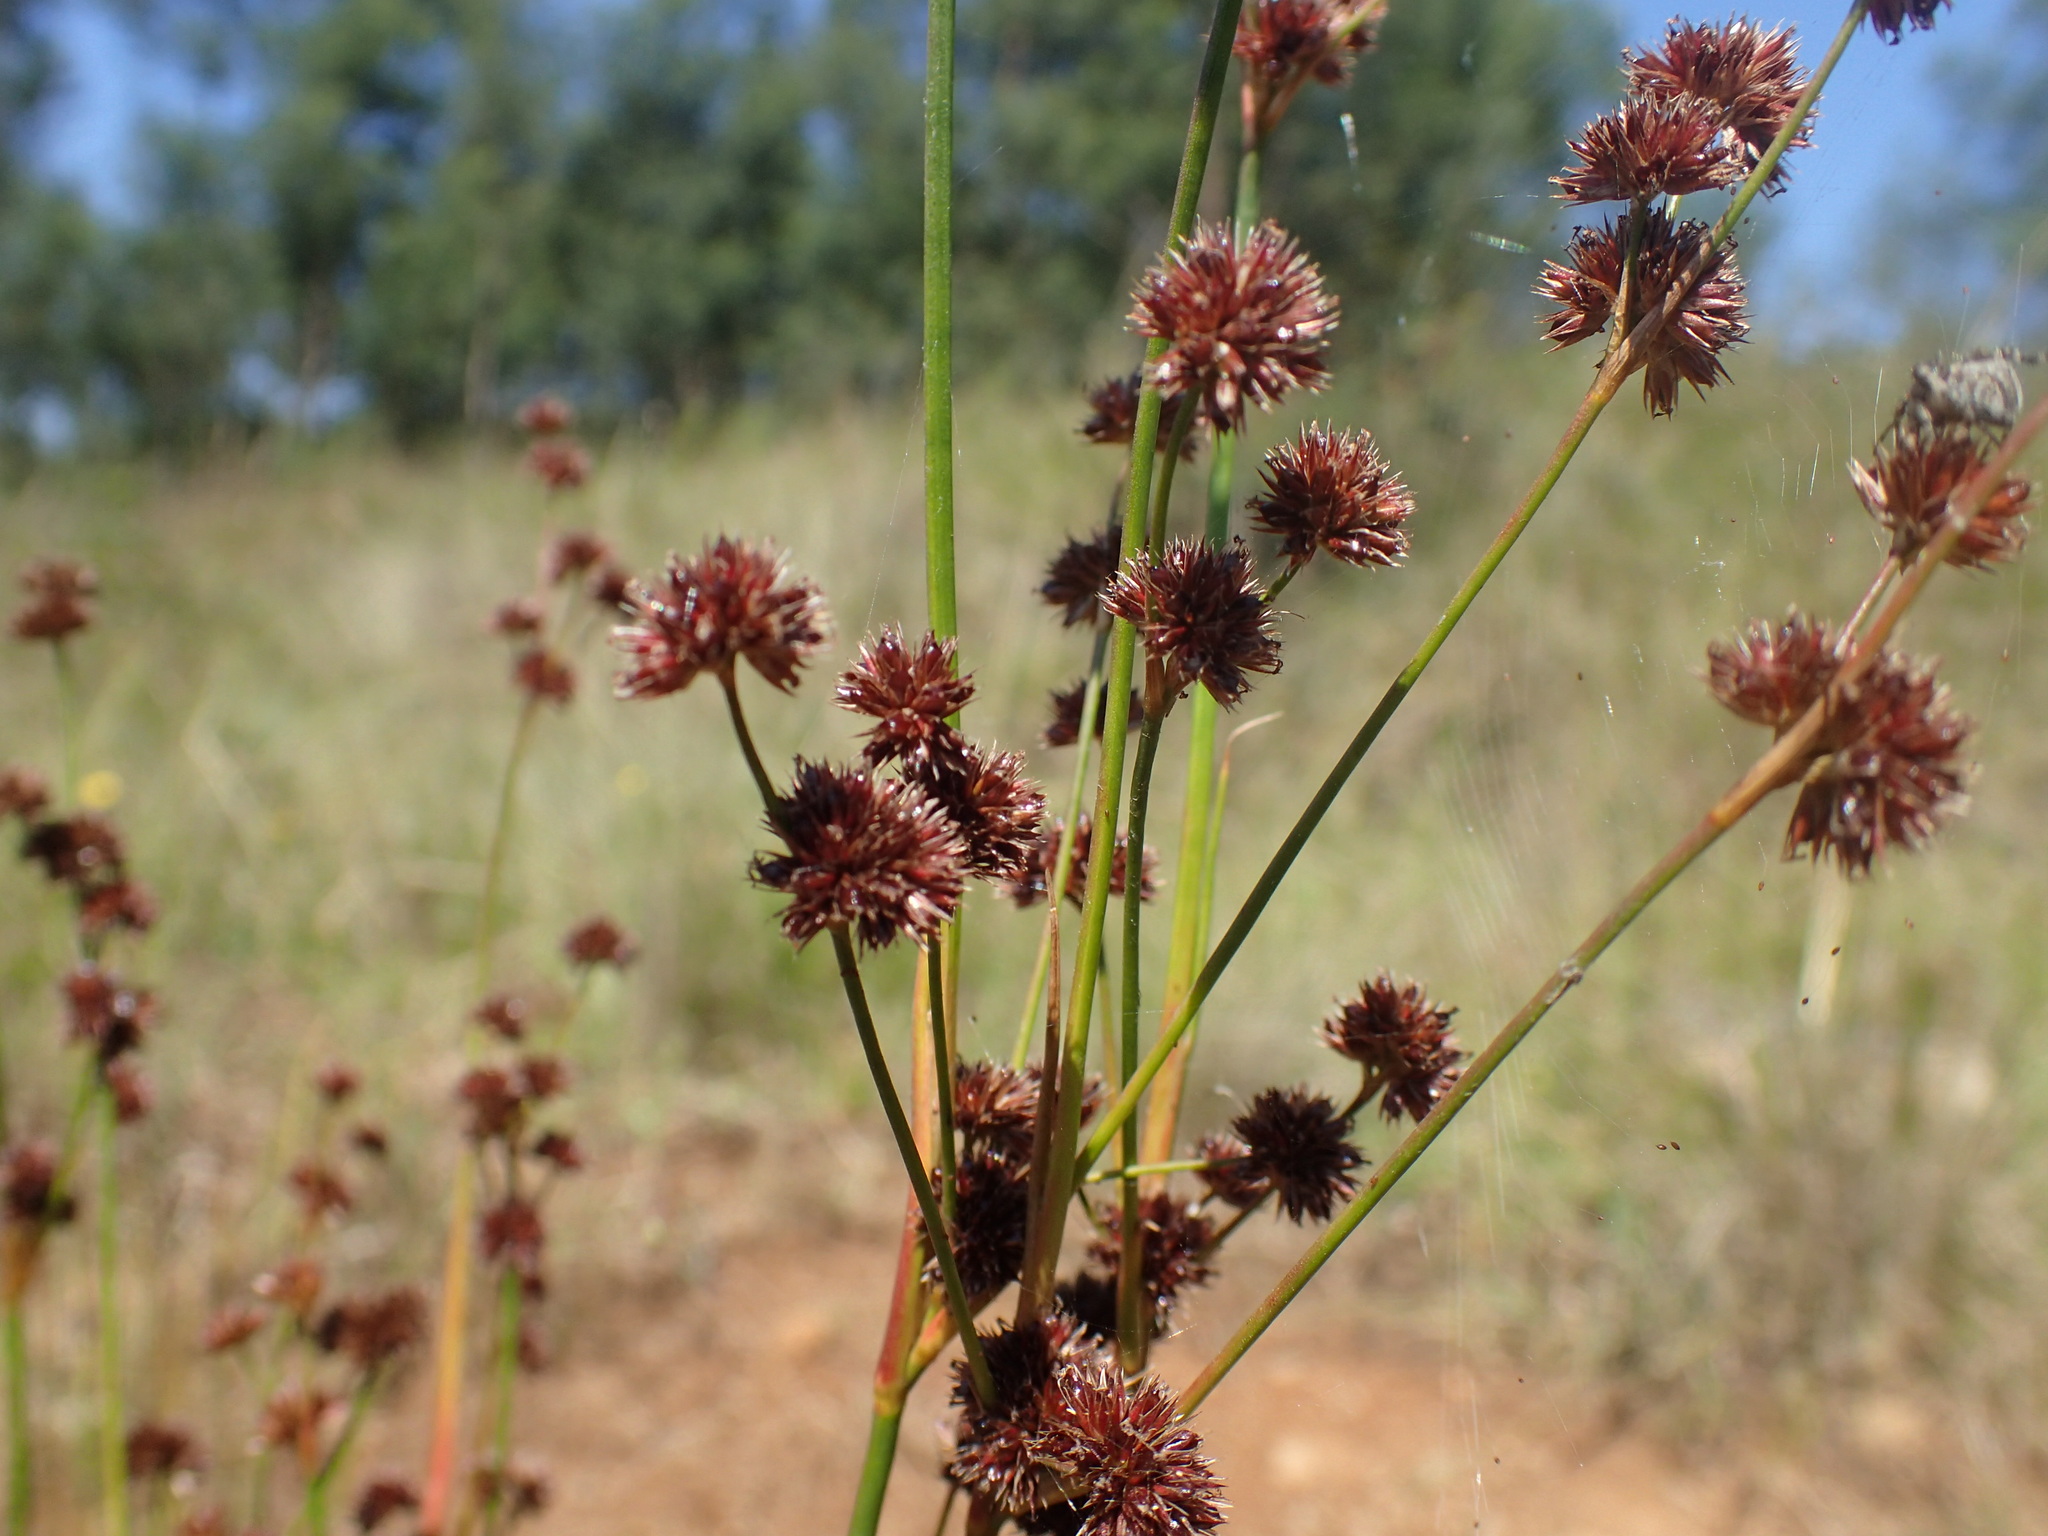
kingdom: Plantae
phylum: Tracheophyta
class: Liliopsida
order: Poales
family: Juncaceae
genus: Juncus
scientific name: Juncus oxycarpus
